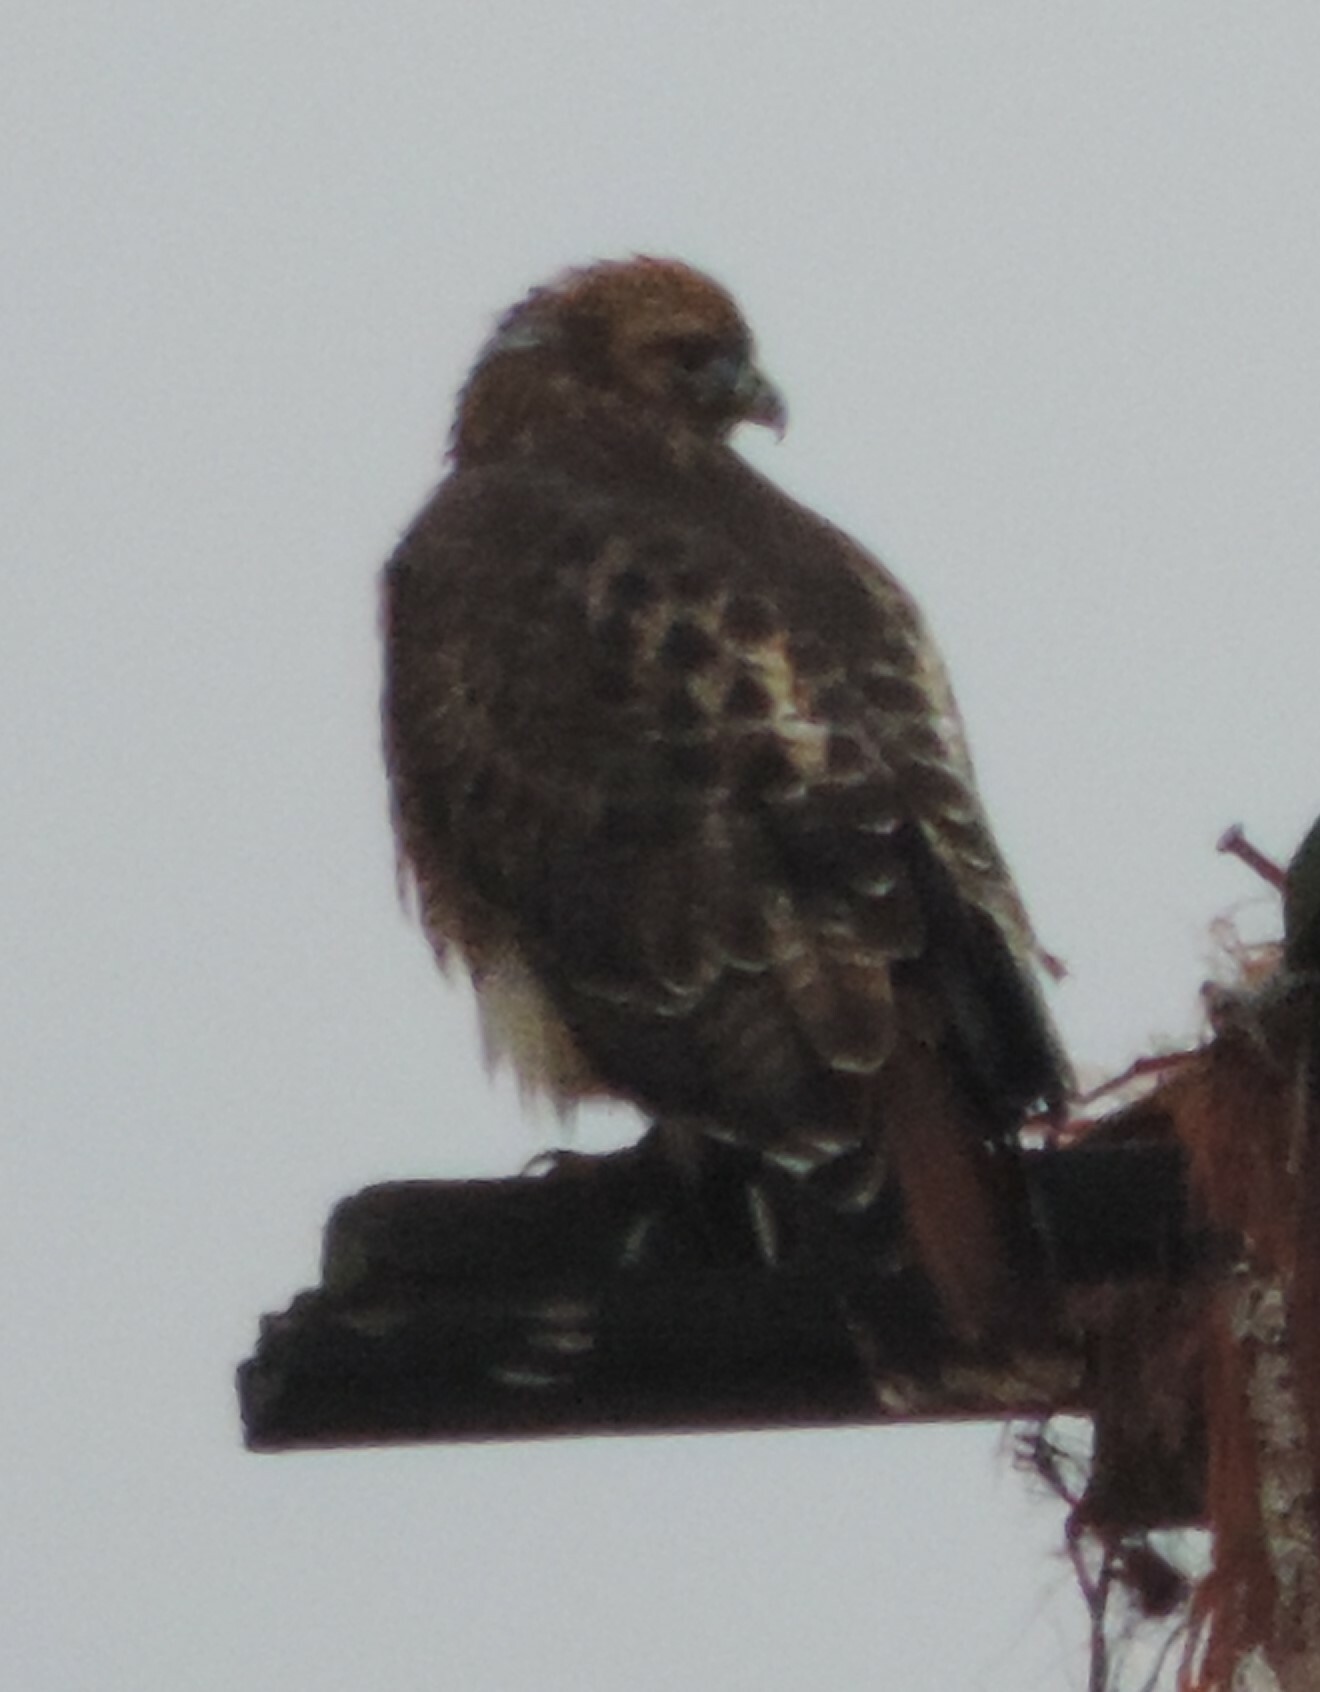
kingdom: Animalia
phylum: Chordata
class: Aves
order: Accipitriformes
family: Accipitridae
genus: Buteo
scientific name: Buteo jamaicensis
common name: Red-tailed hawk
